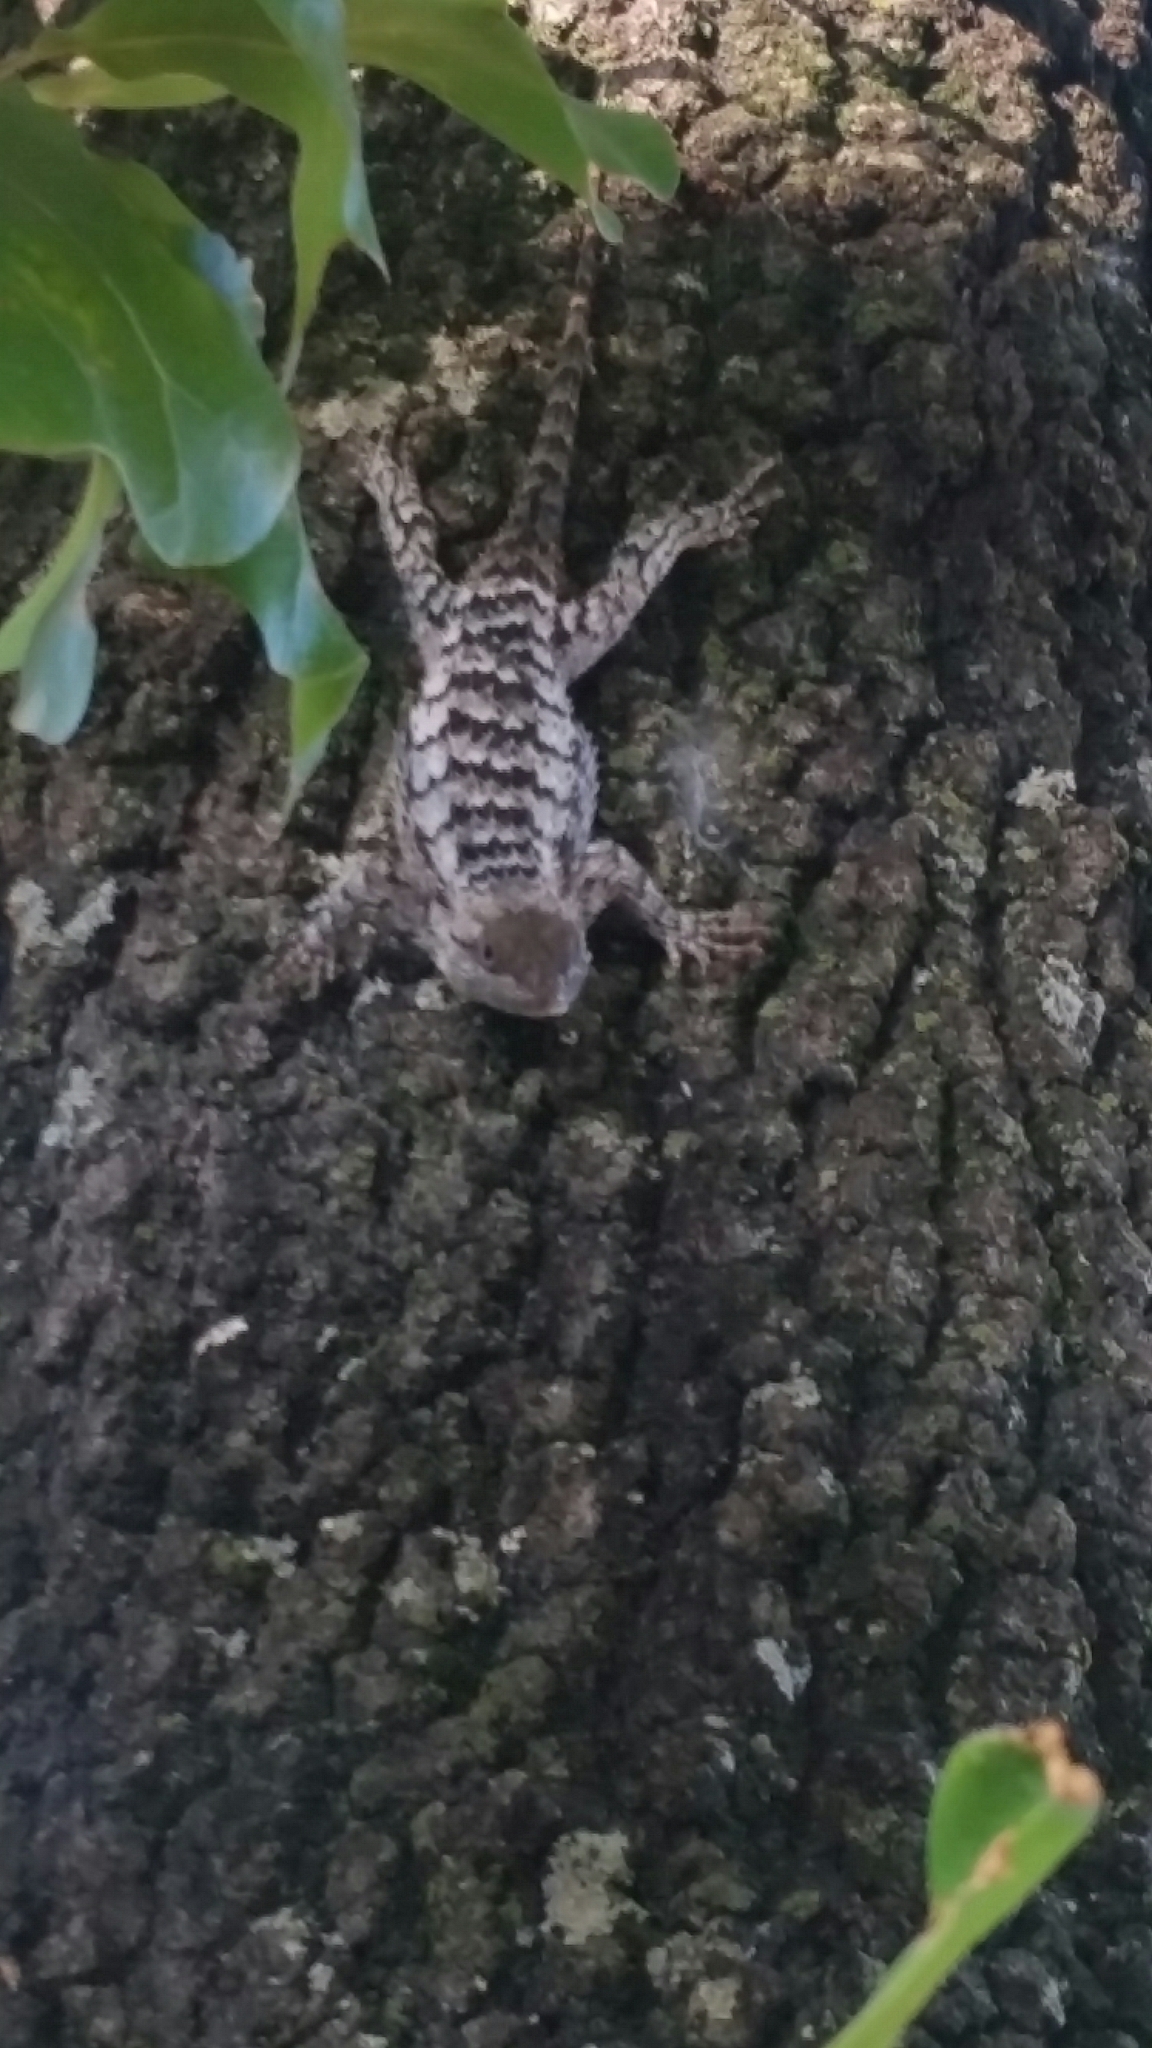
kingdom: Animalia
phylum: Chordata
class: Squamata
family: Phrynosomatidae
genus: Sceloporus
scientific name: Sceloporus olivaceus
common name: Texas spiny lizard
